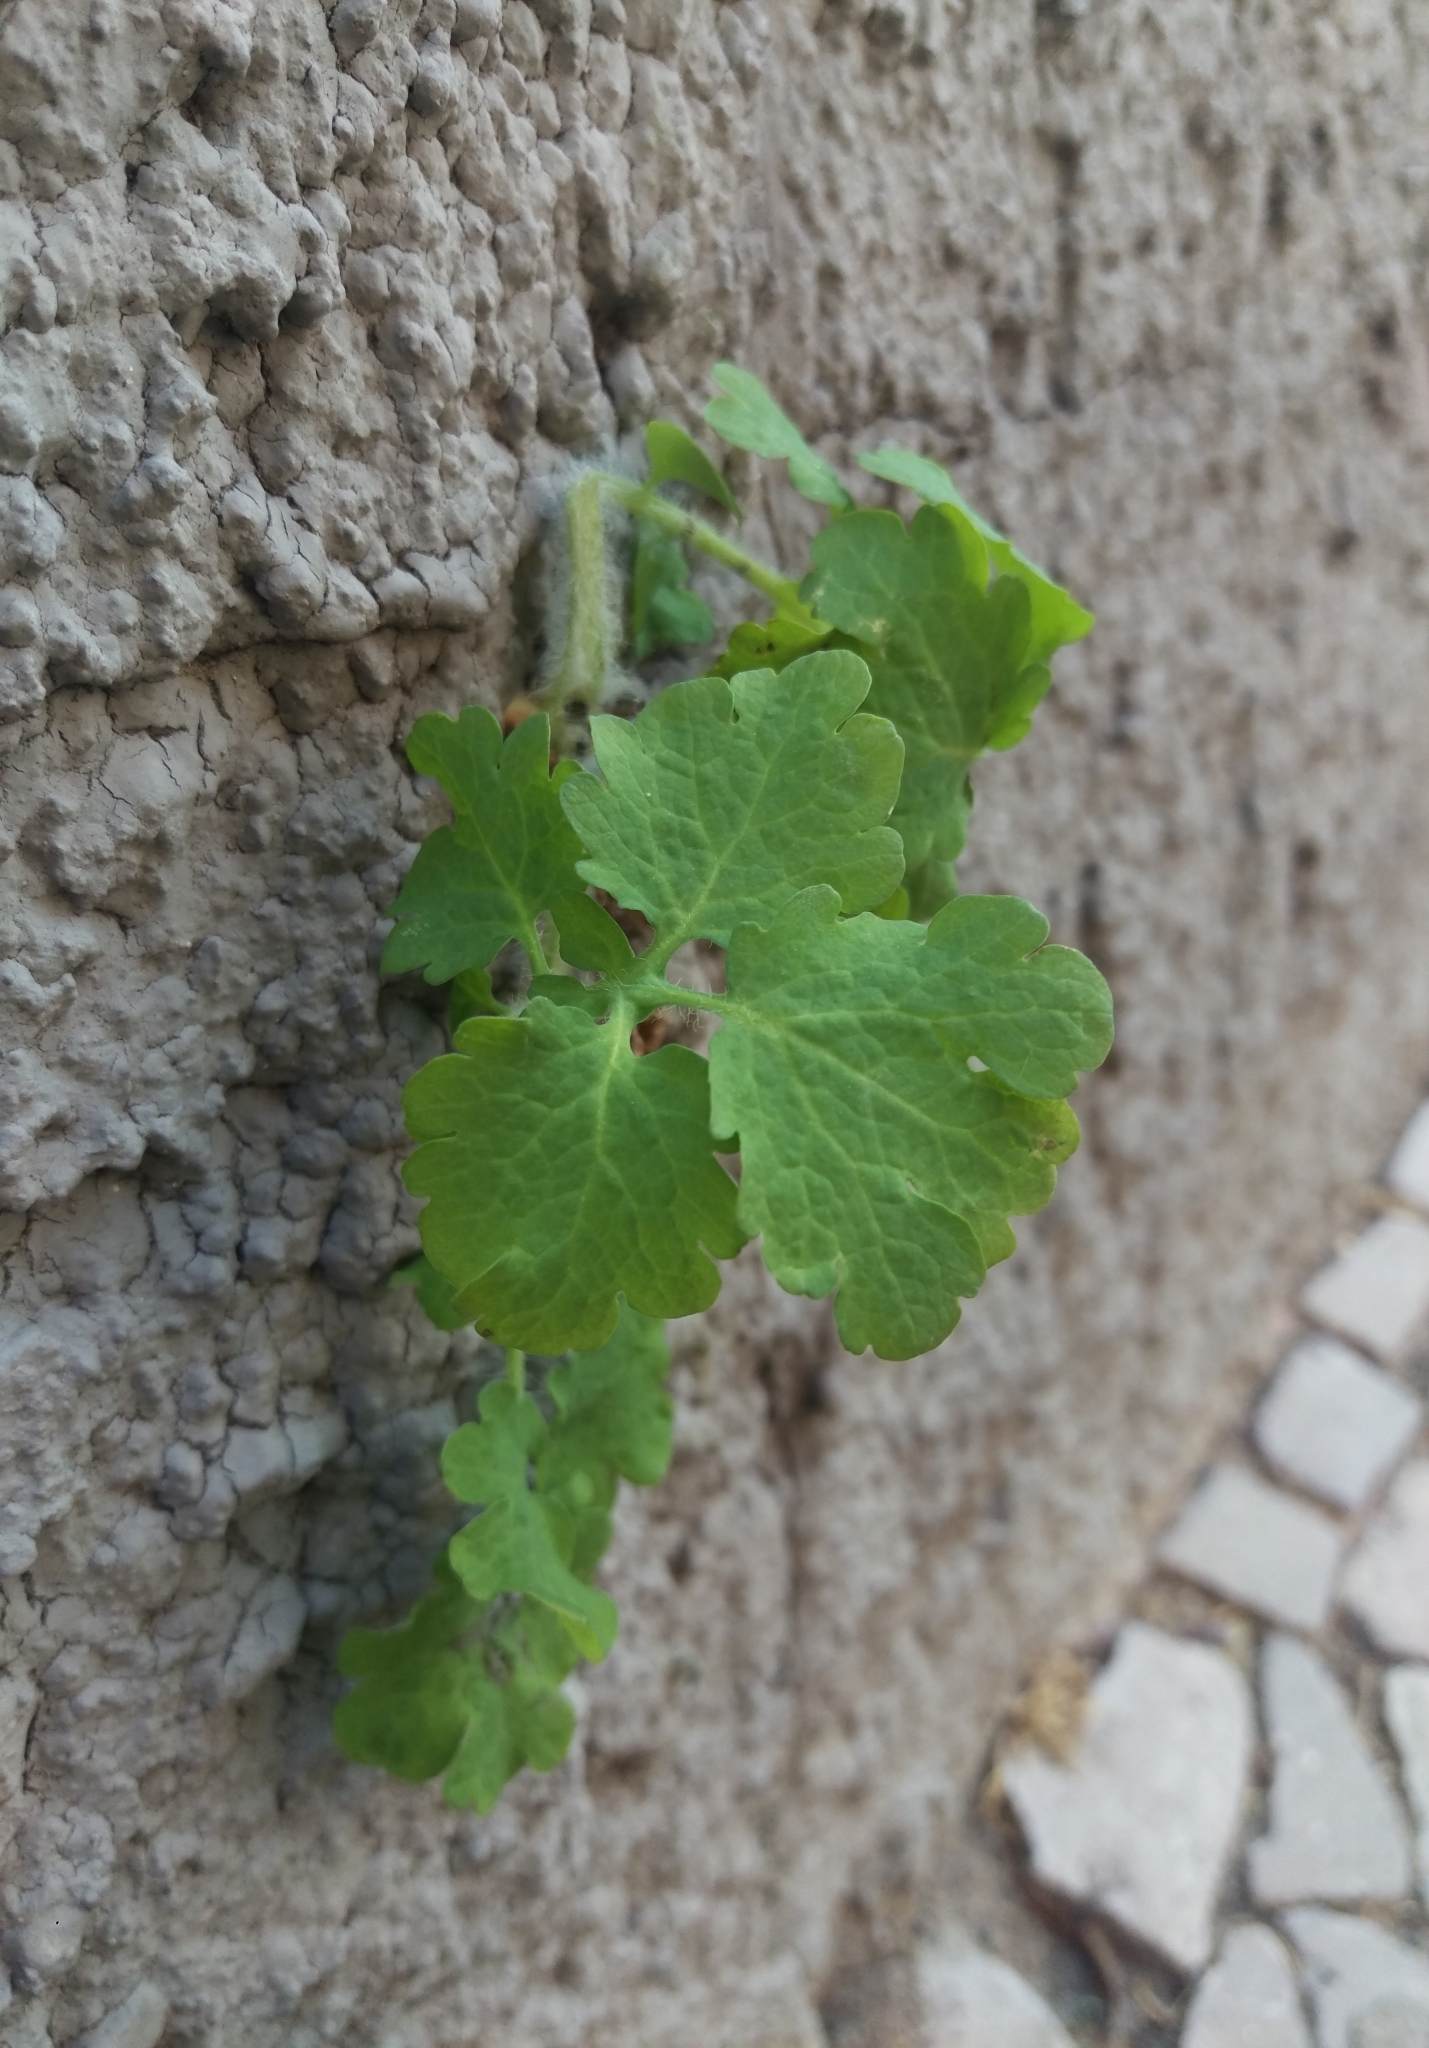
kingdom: Plantae
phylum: Tracheophyta
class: Magnoliopsida
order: Ranunculales
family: Papaveraceae
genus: Chelidonium
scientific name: Chelidonium majus
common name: Greater celandine
